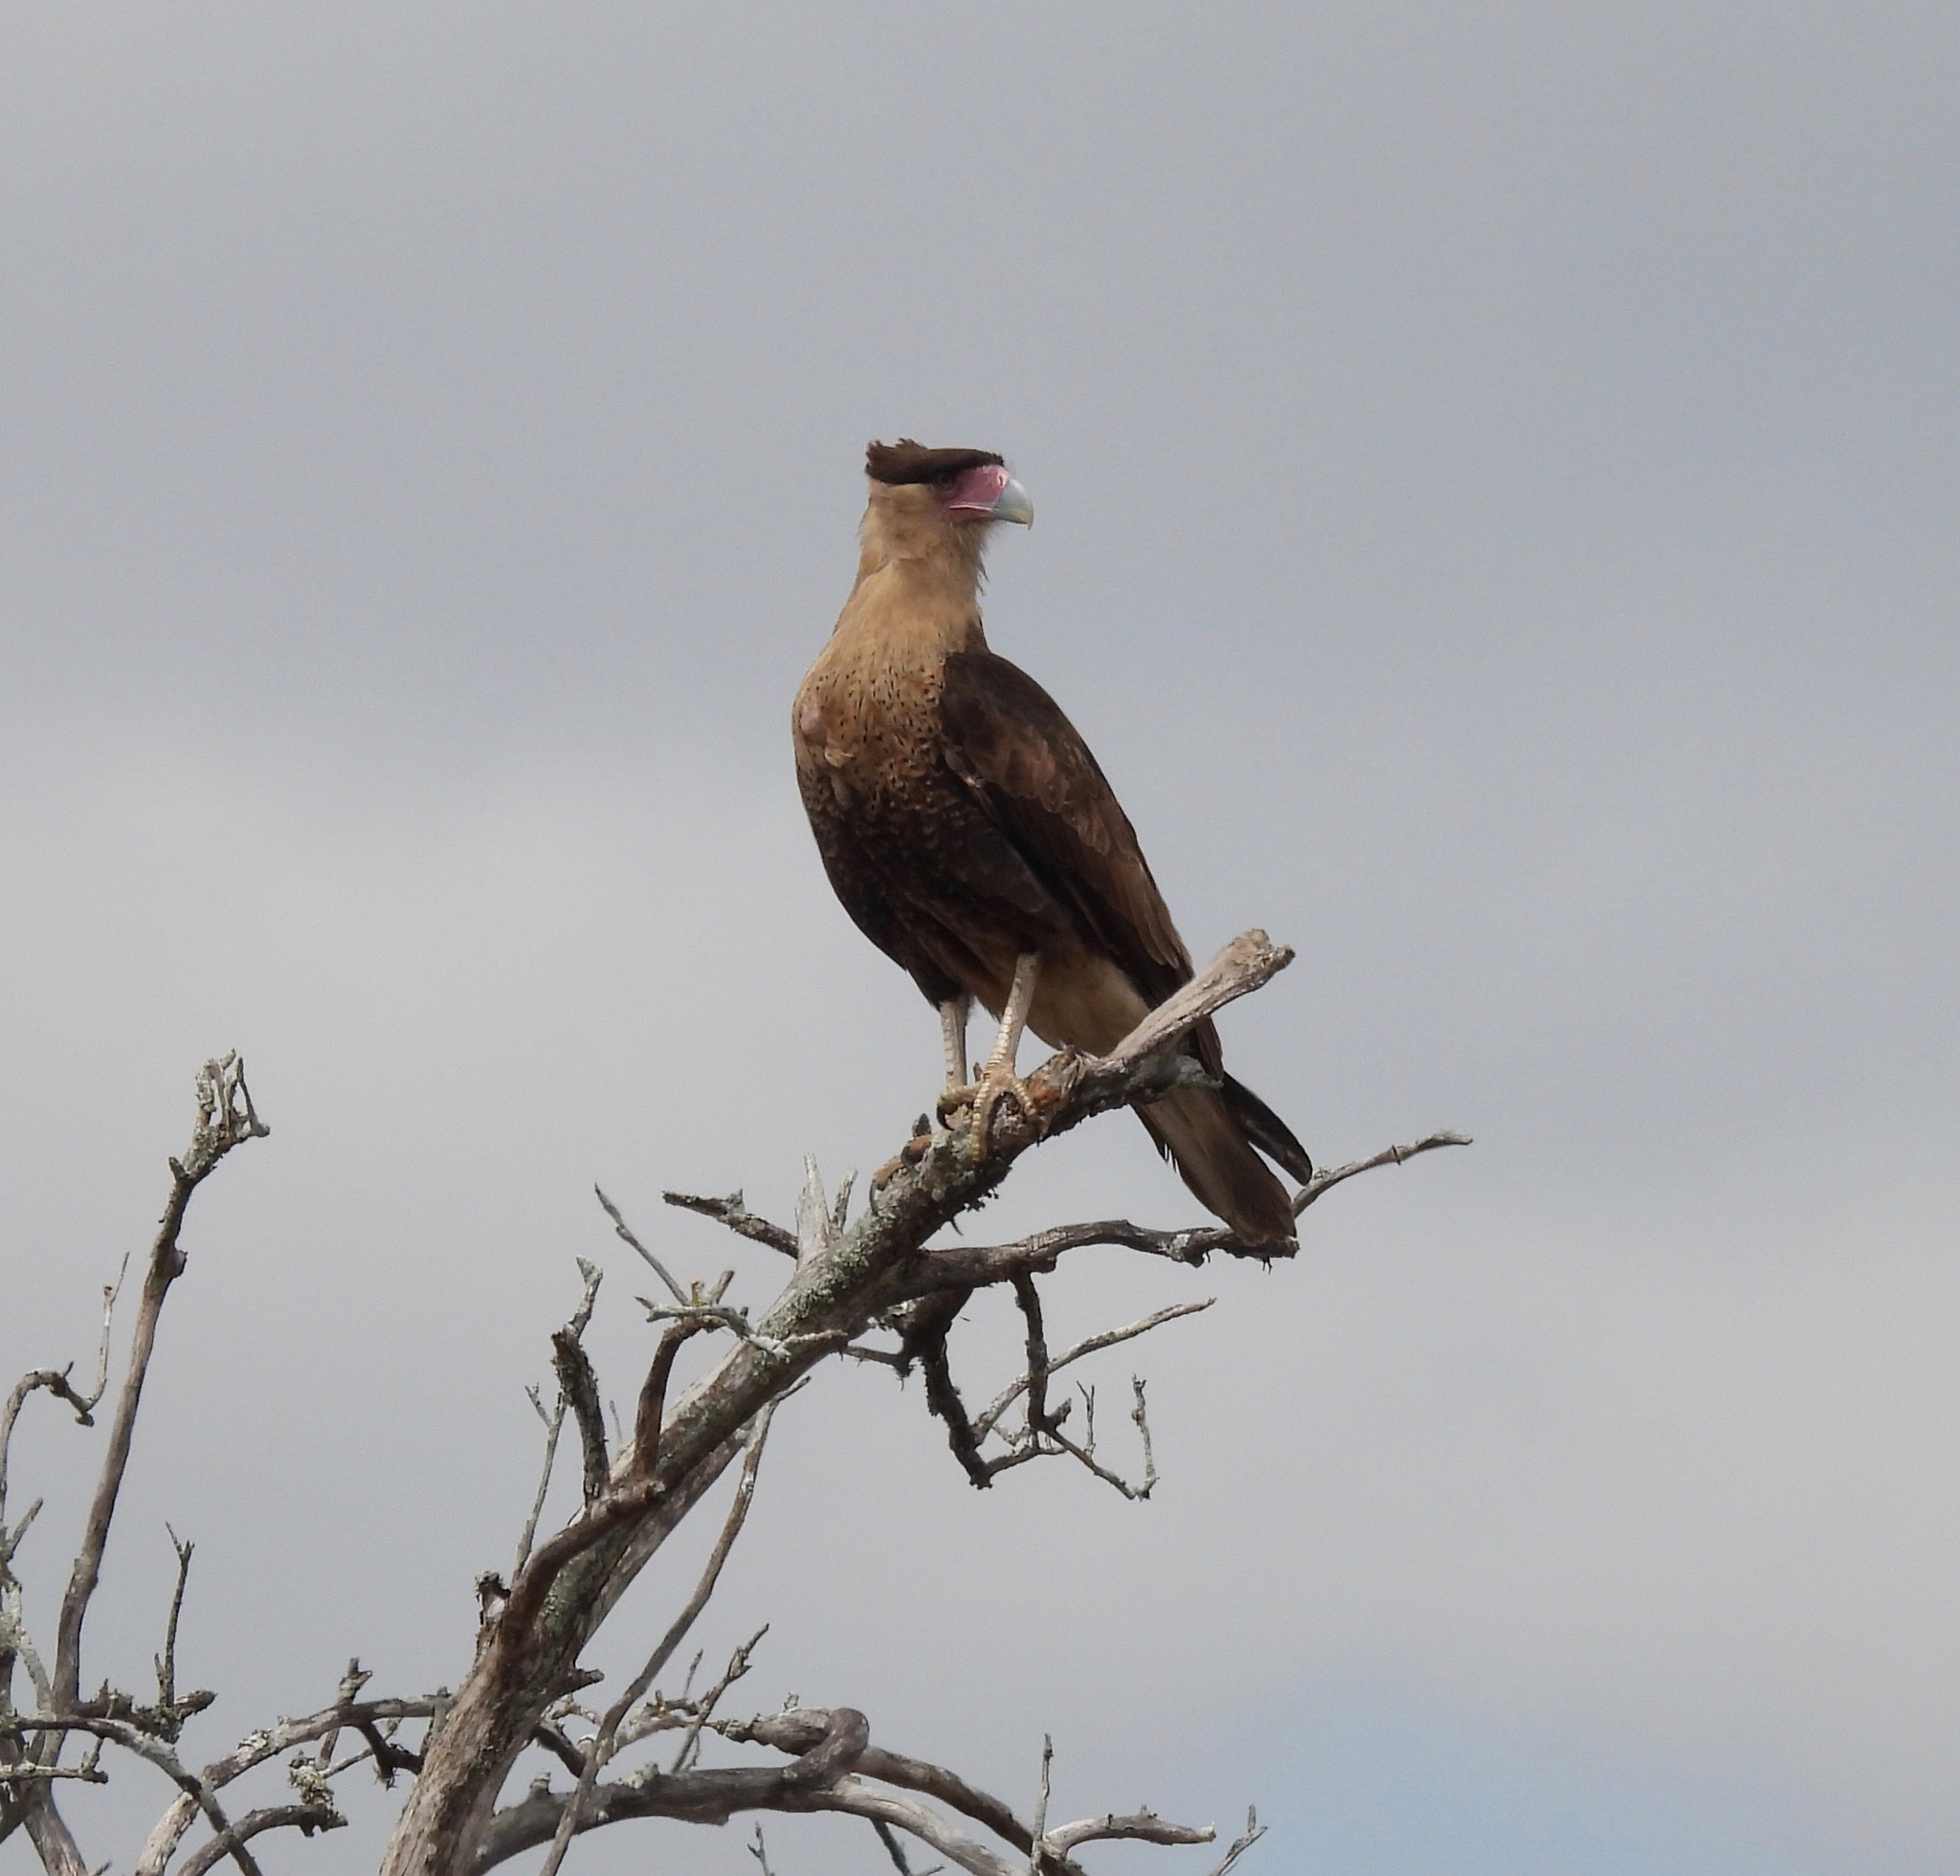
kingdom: Animalia
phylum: Chordata
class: Aves
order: Falconiformes
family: Falconidae
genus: Caracara
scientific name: Caracara plancus
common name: Southern caracara
